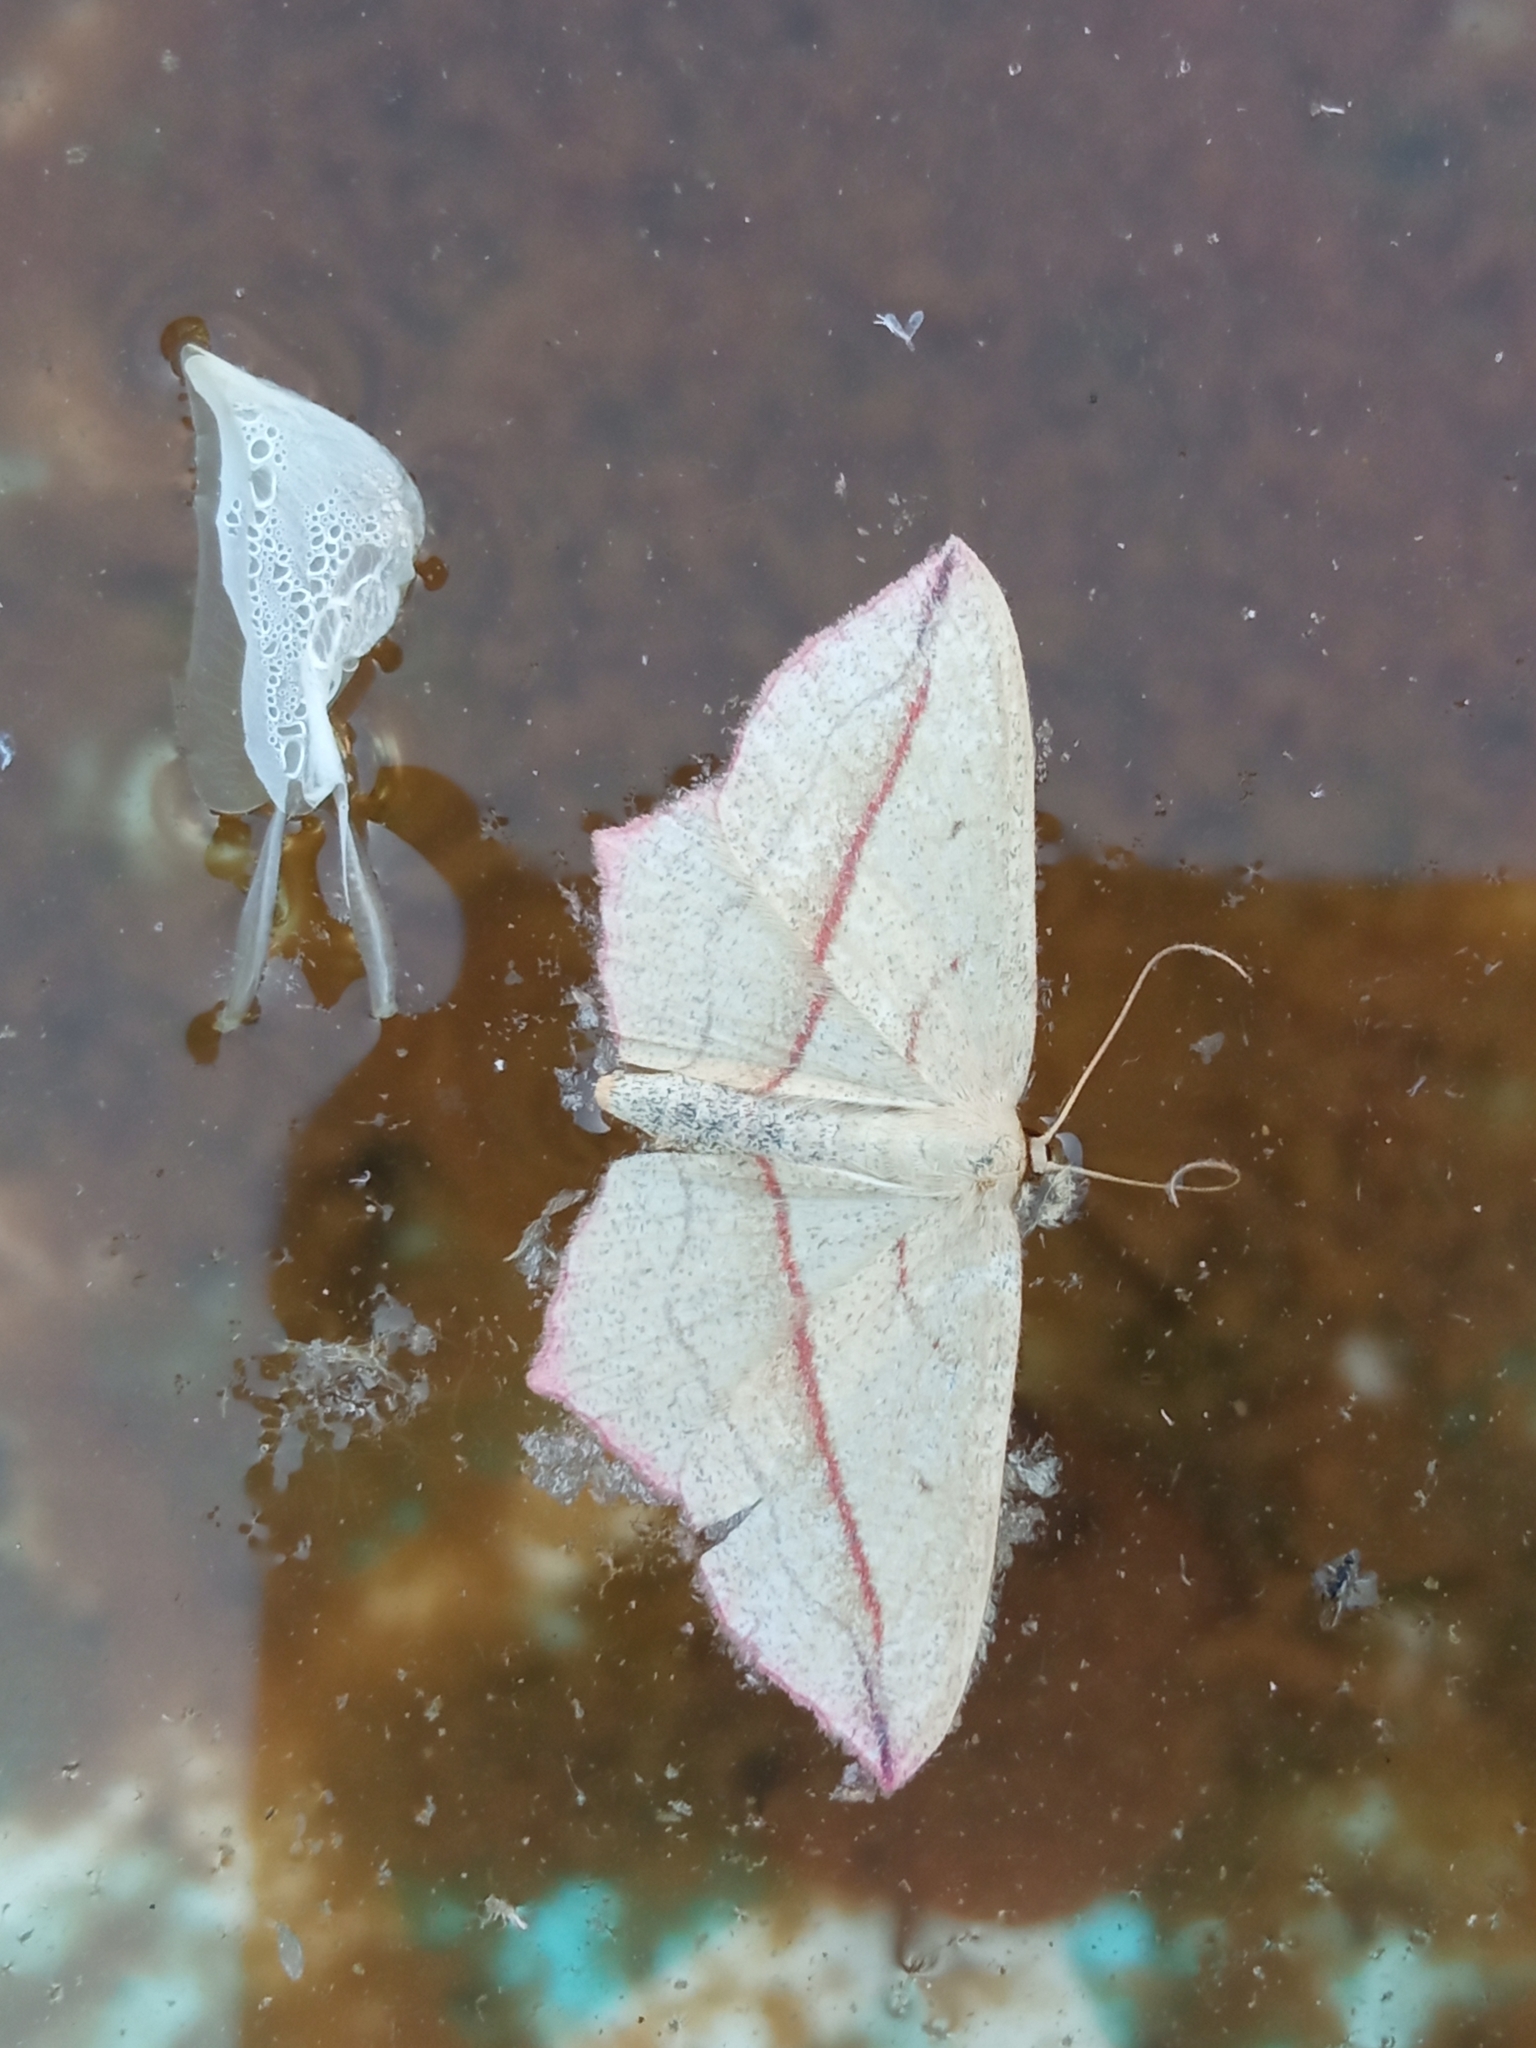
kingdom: Animalia
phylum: Arthropoda
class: Insecta
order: Lepidoptera
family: Geometridae
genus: Timandra
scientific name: Timandra comae
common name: Blood-vein
